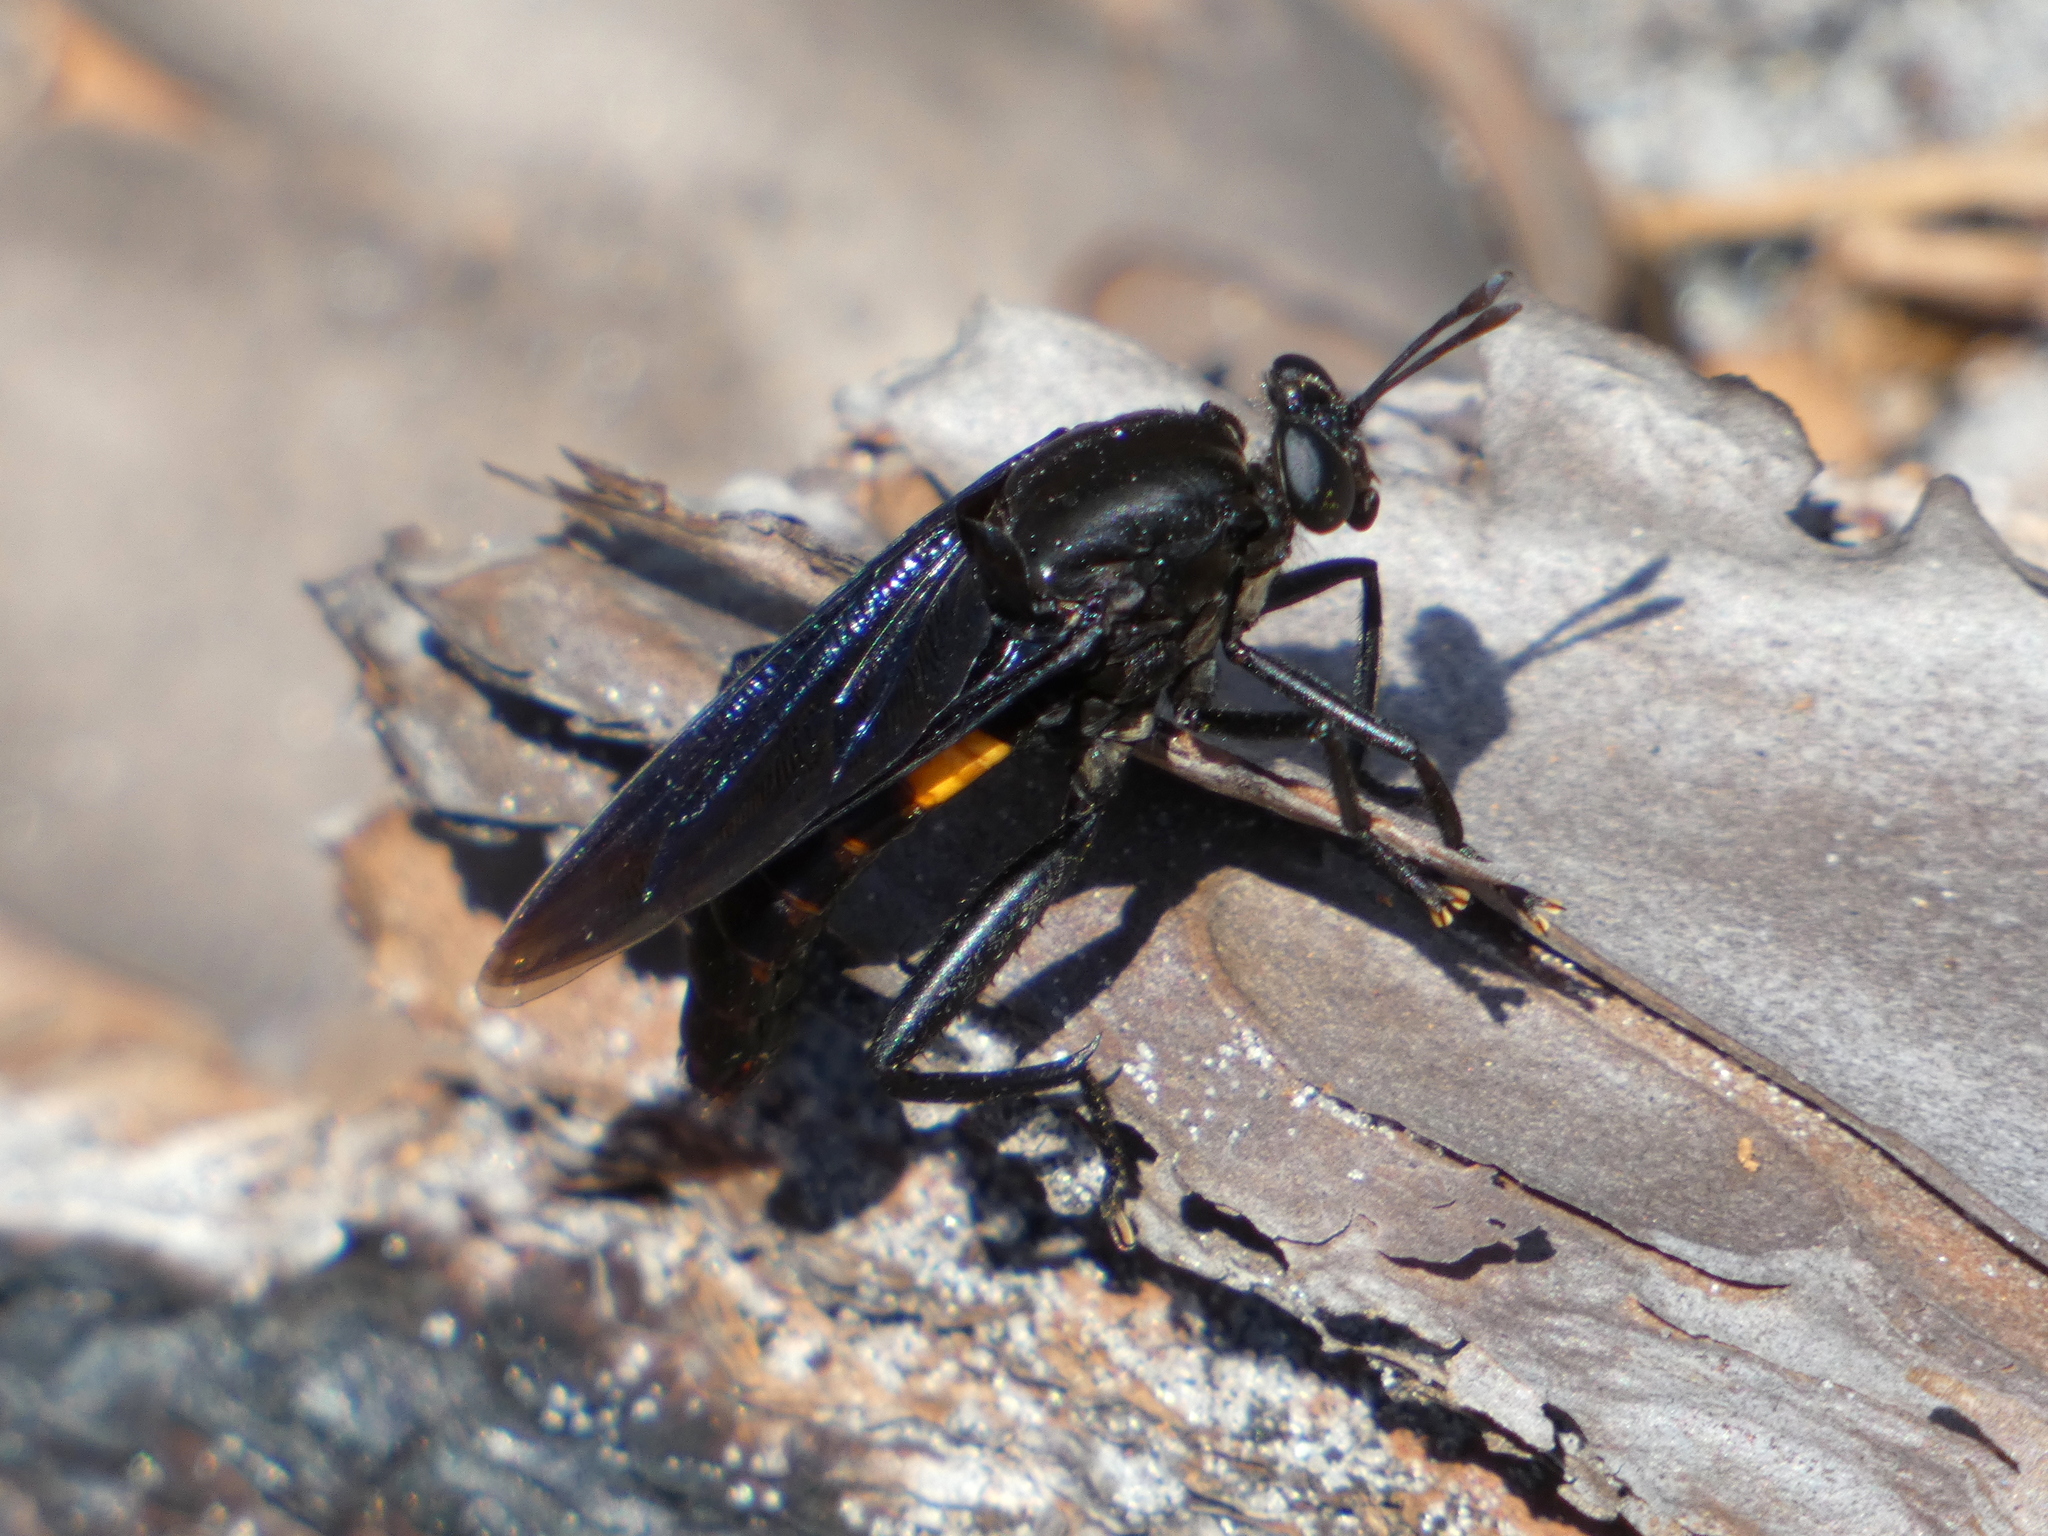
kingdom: Animalia
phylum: Arthropoda
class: Insecta
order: Diptera
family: Mydidae
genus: Mydas
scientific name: Mydas clavatus
